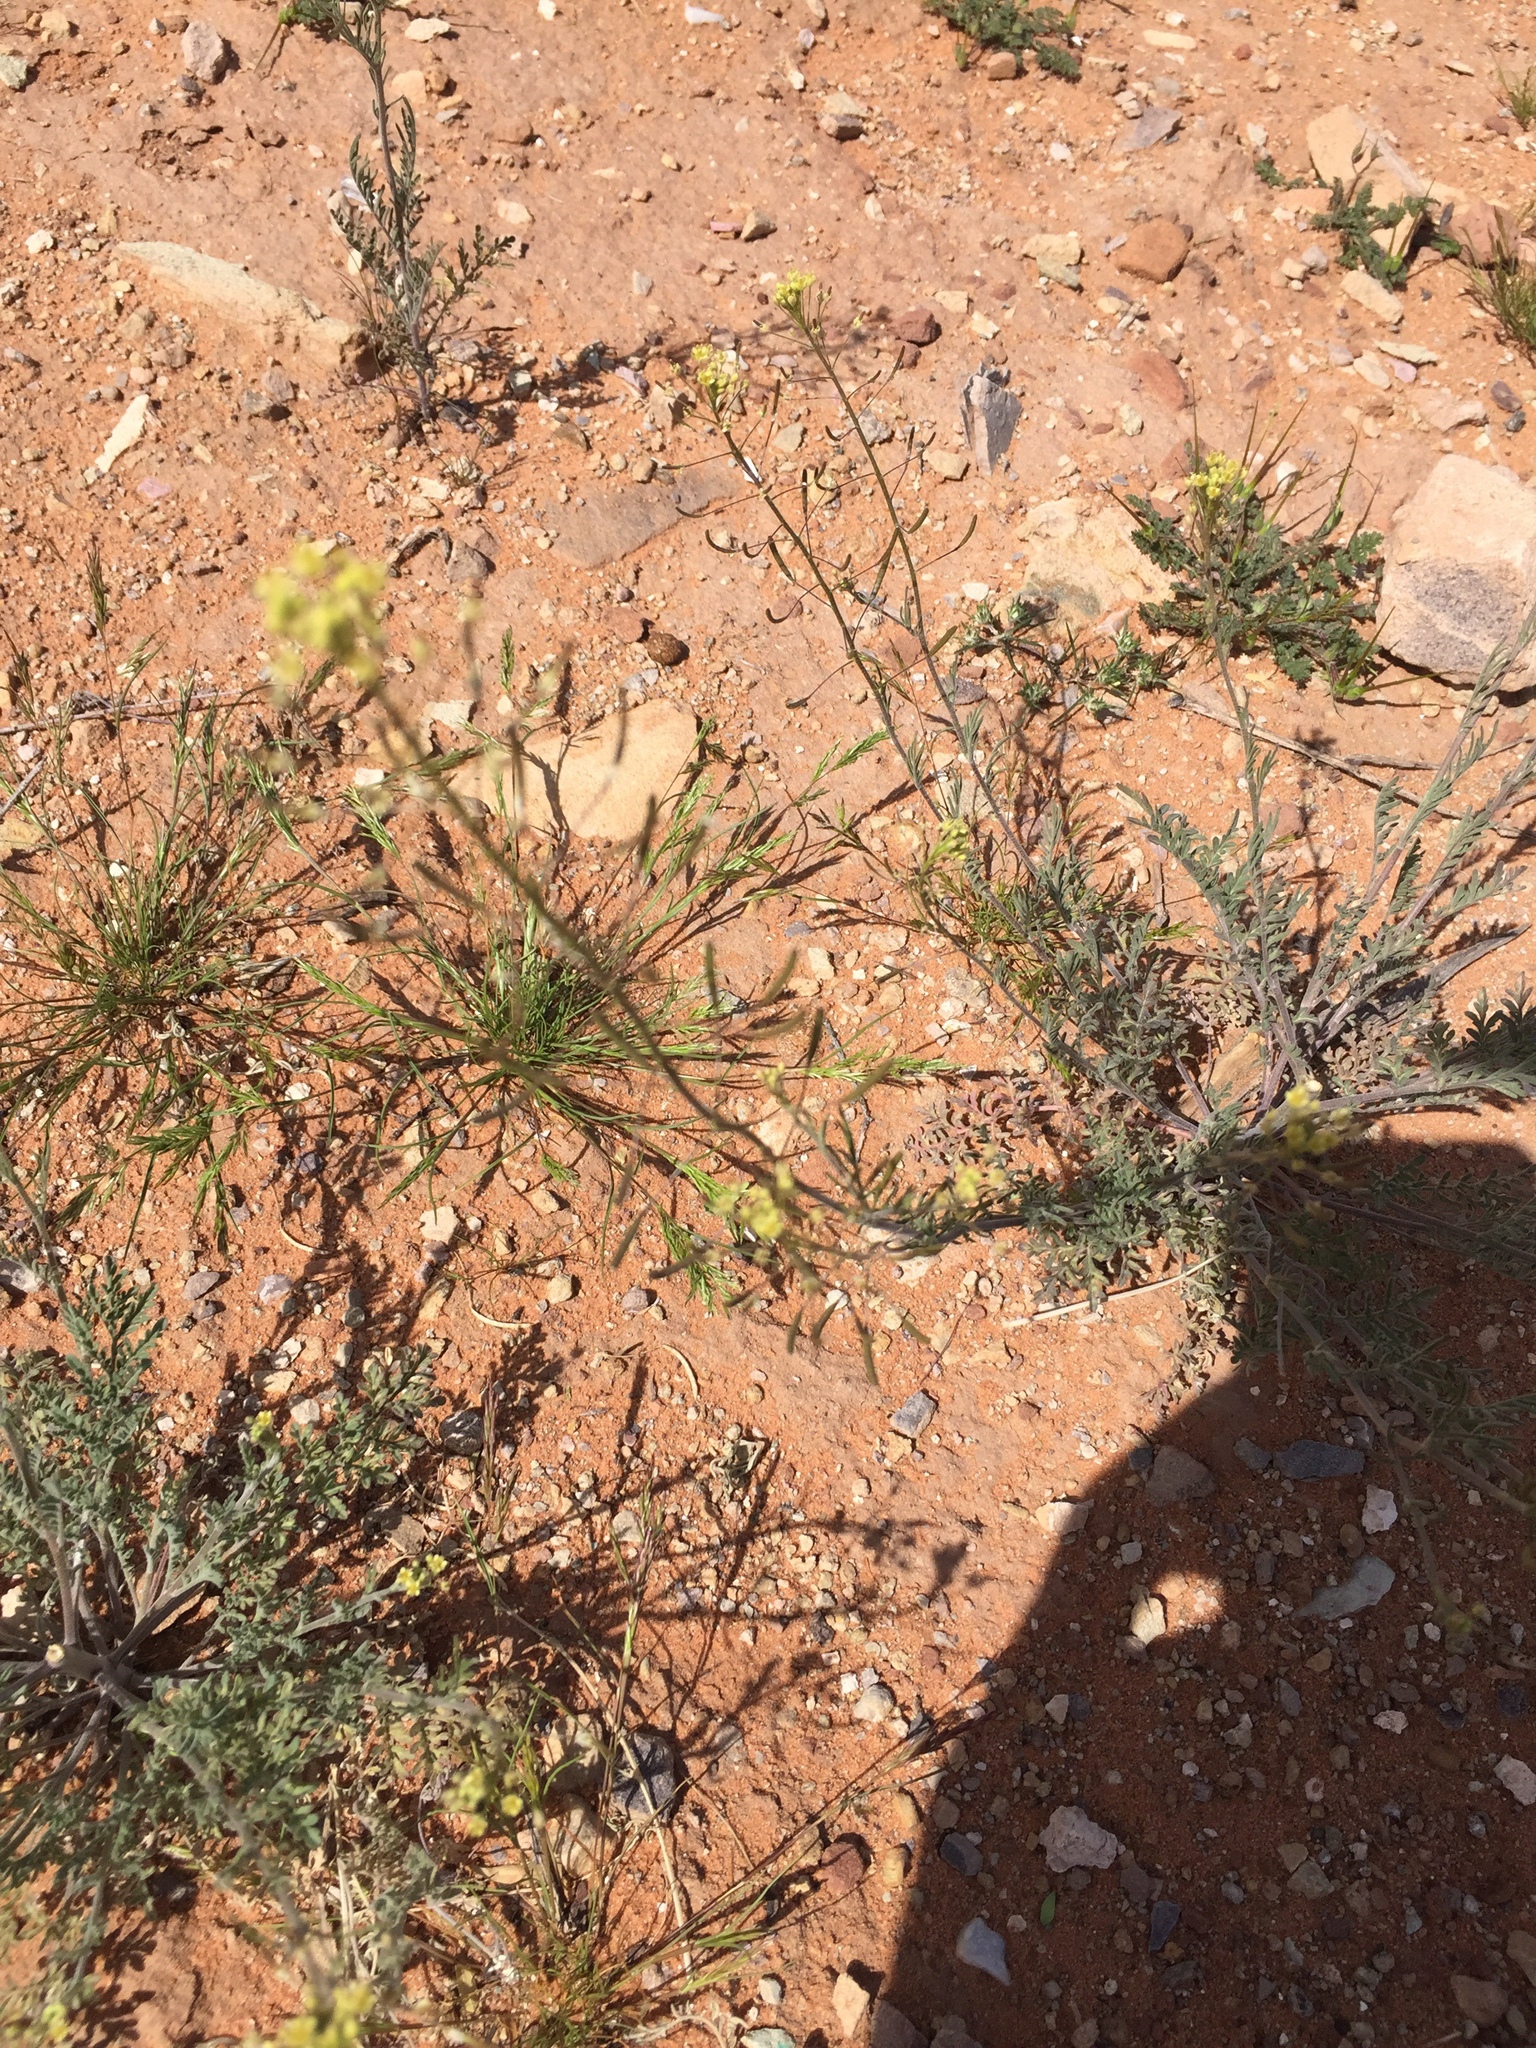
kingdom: Plantae
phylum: Tracheophyta
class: Magnoliopsida
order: Brassicales
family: Brassicaceae
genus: Descurainia
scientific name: Descurainia pinnata
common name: Western tansy mustard
